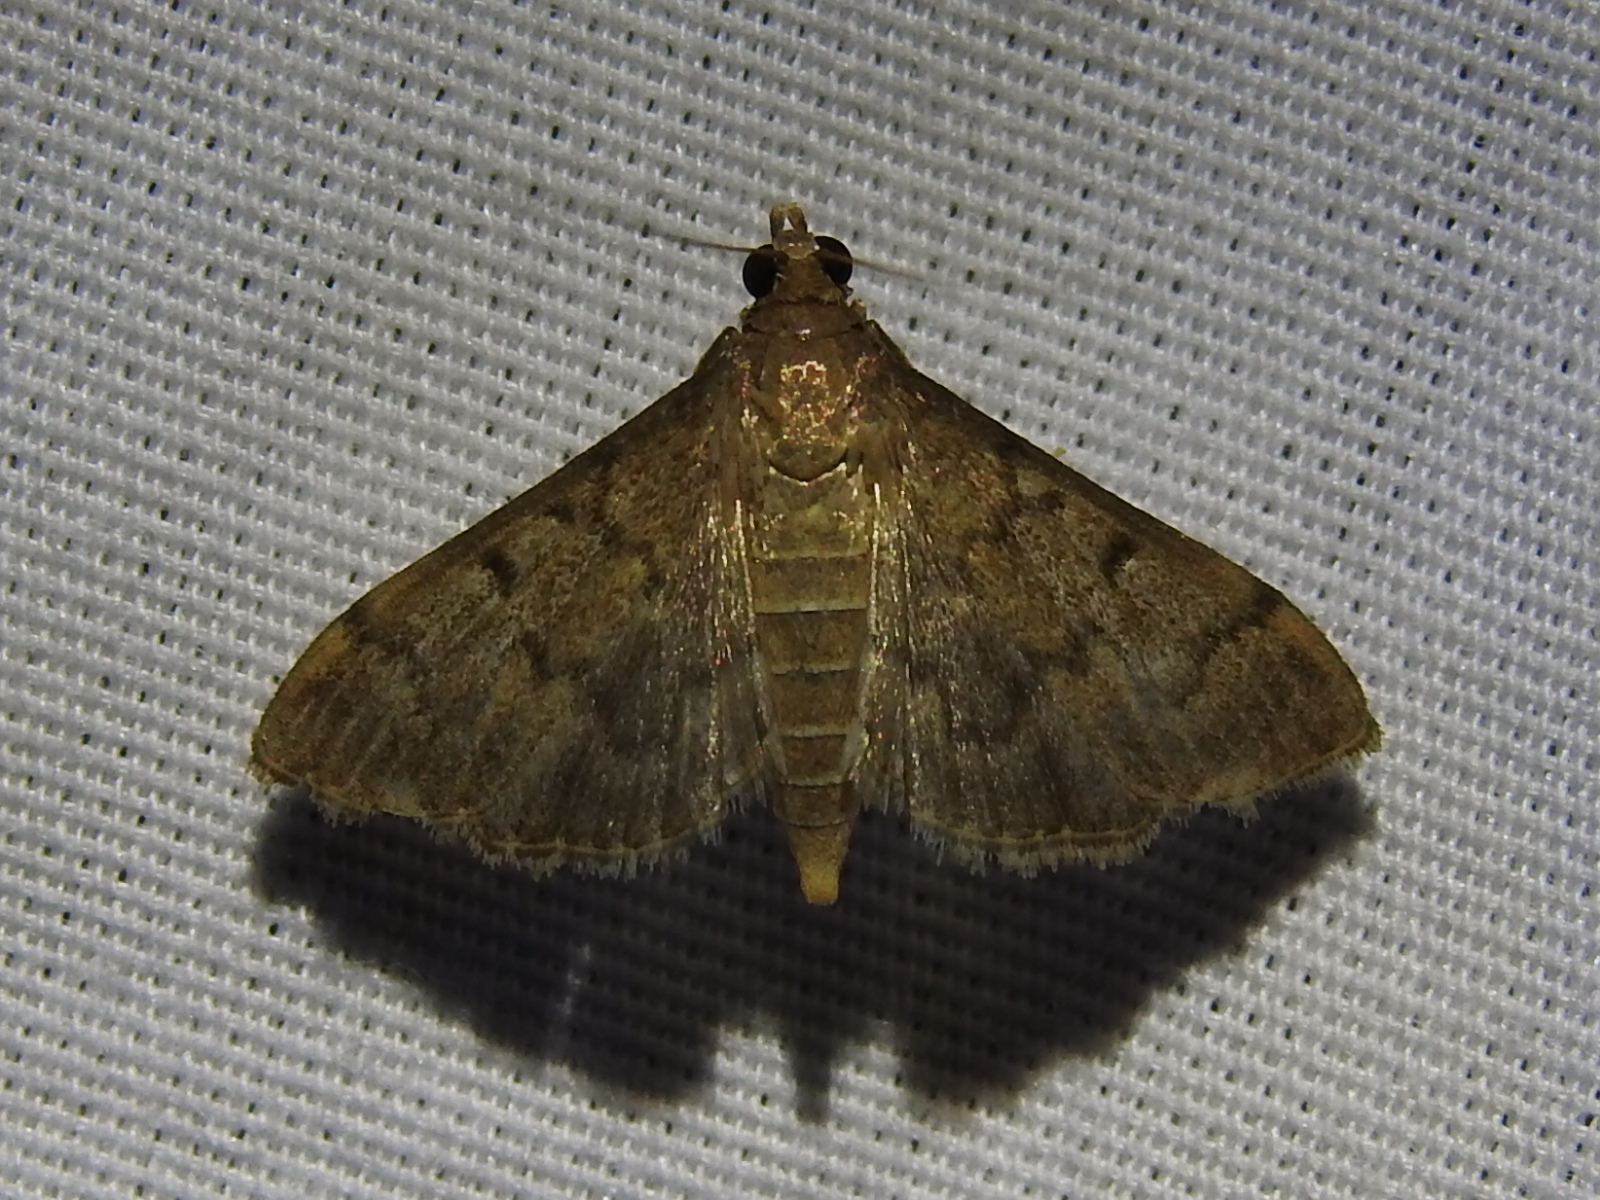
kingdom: Animalia
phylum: Arthropoda
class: Insecta
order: Lepidoptera
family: Crambidae
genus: Herpetogramma
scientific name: Herpetogramma phaeopteralis
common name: Dusky herpetogramma moth
